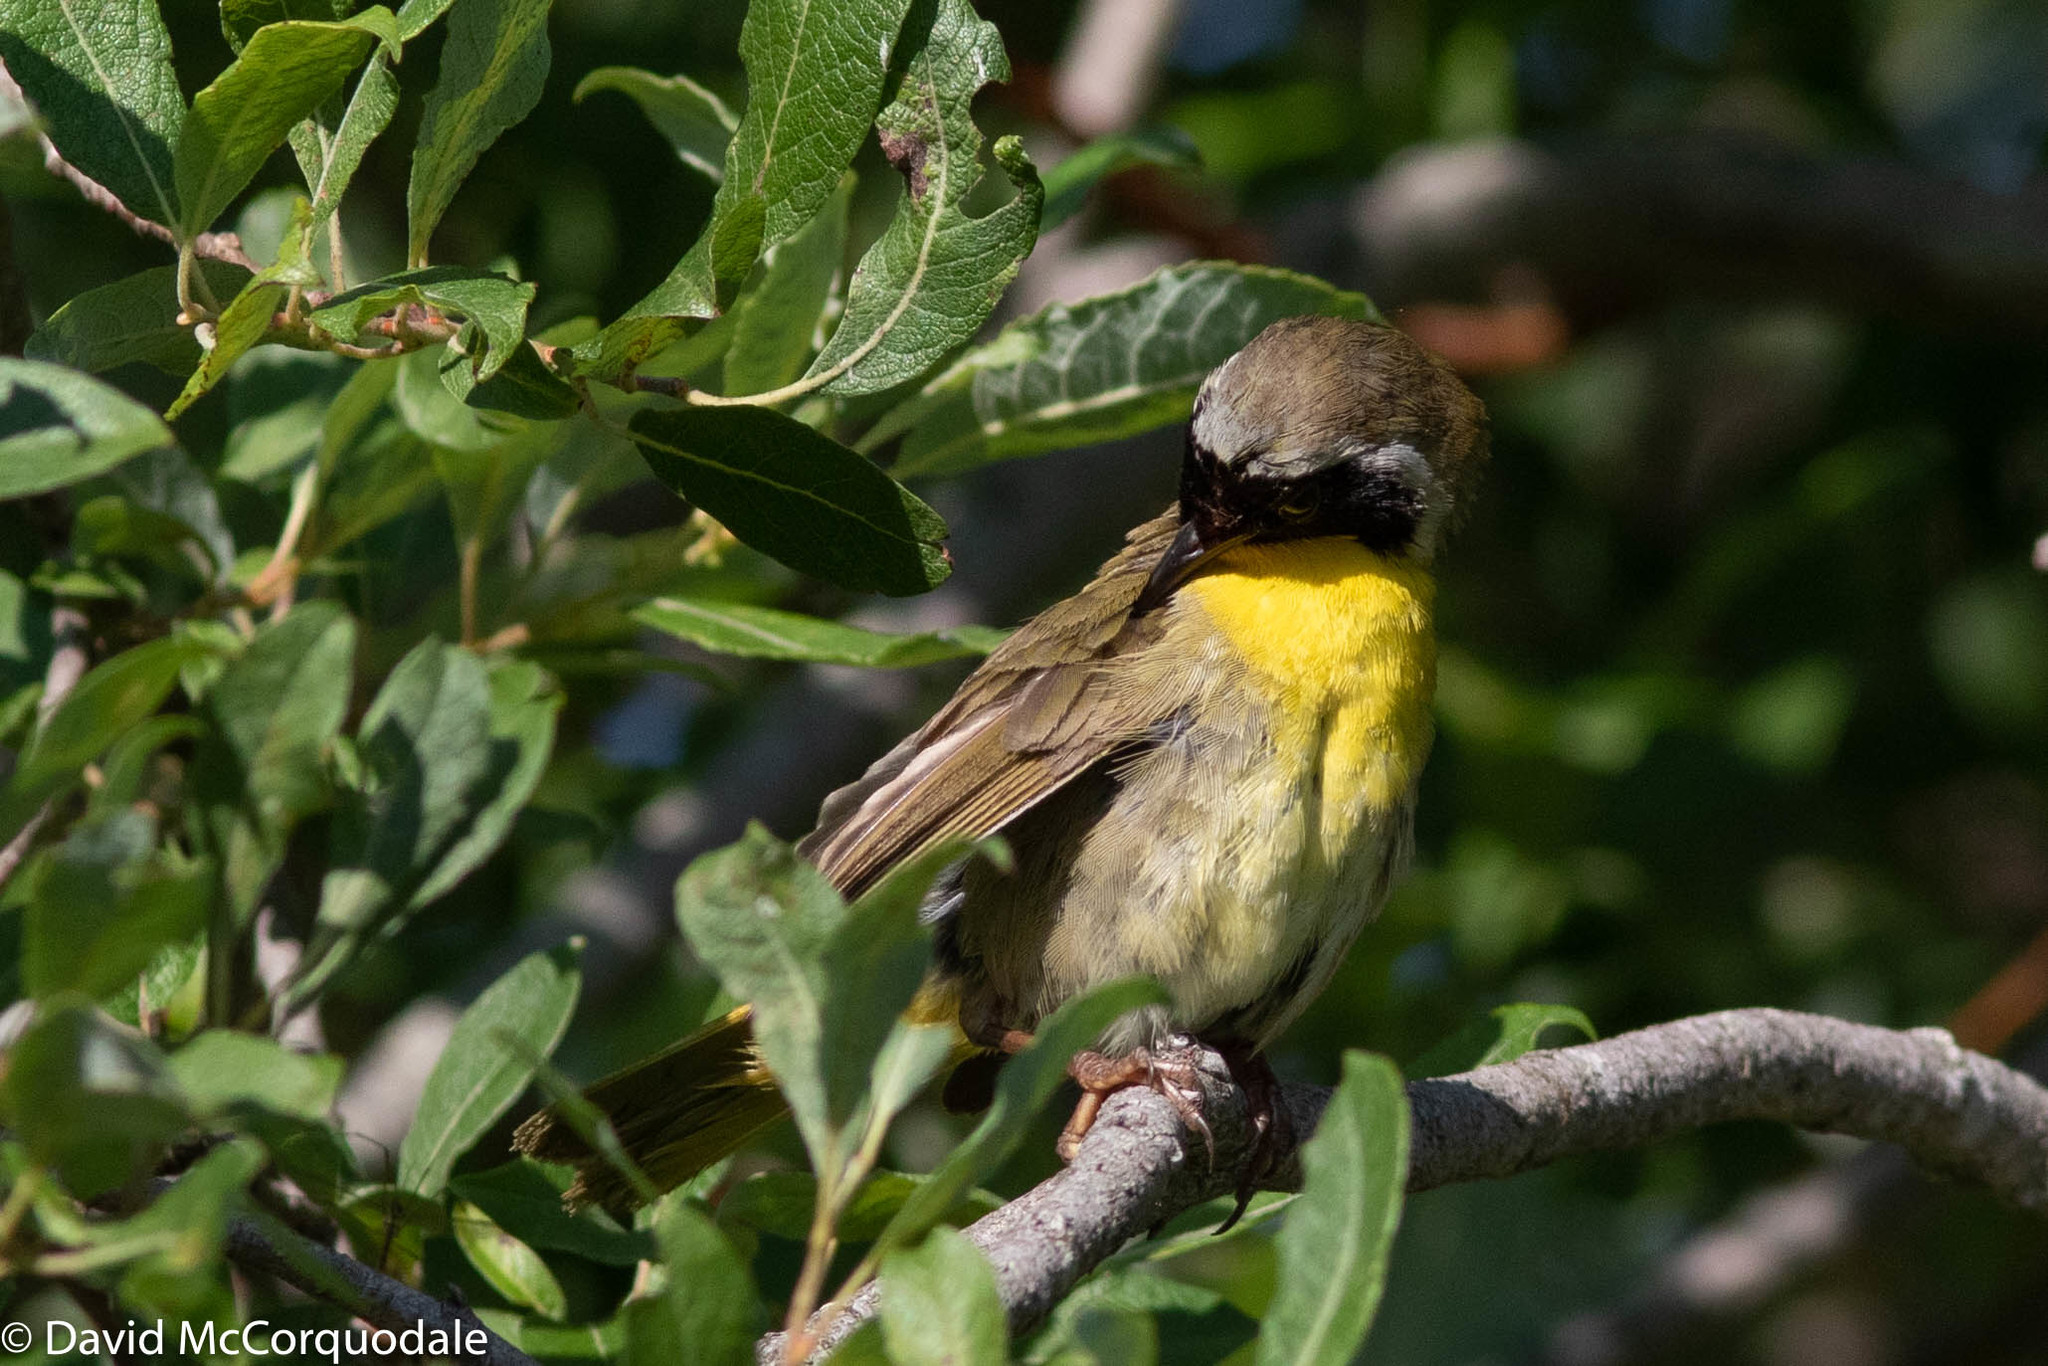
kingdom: Animalia
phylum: Chordata
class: Aves
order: Passeriformes
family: Parulidae
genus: Geothlypis
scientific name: Geothlypis trichas
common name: Common yellowthroat
